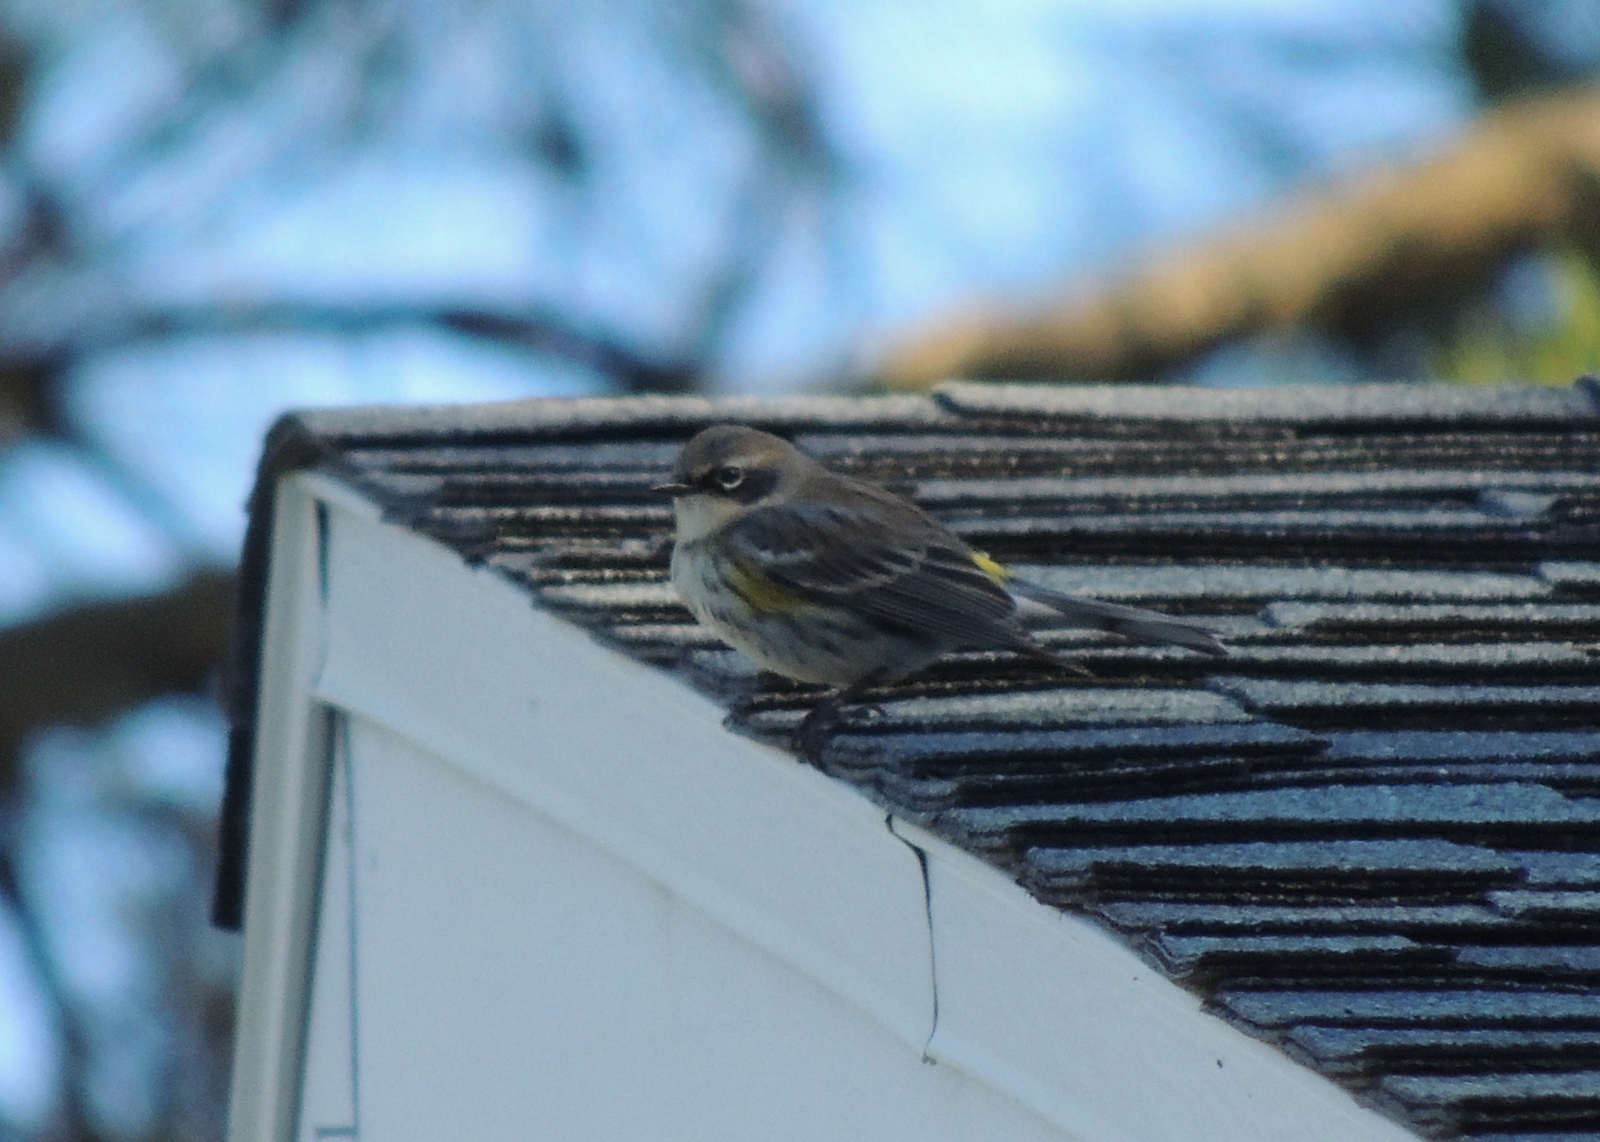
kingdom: Animalia
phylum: Chordata
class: Aves
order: Passeriformes
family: Parulidae
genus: Setophaga
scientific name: Setophaga coronata
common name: Myrtle warbler
